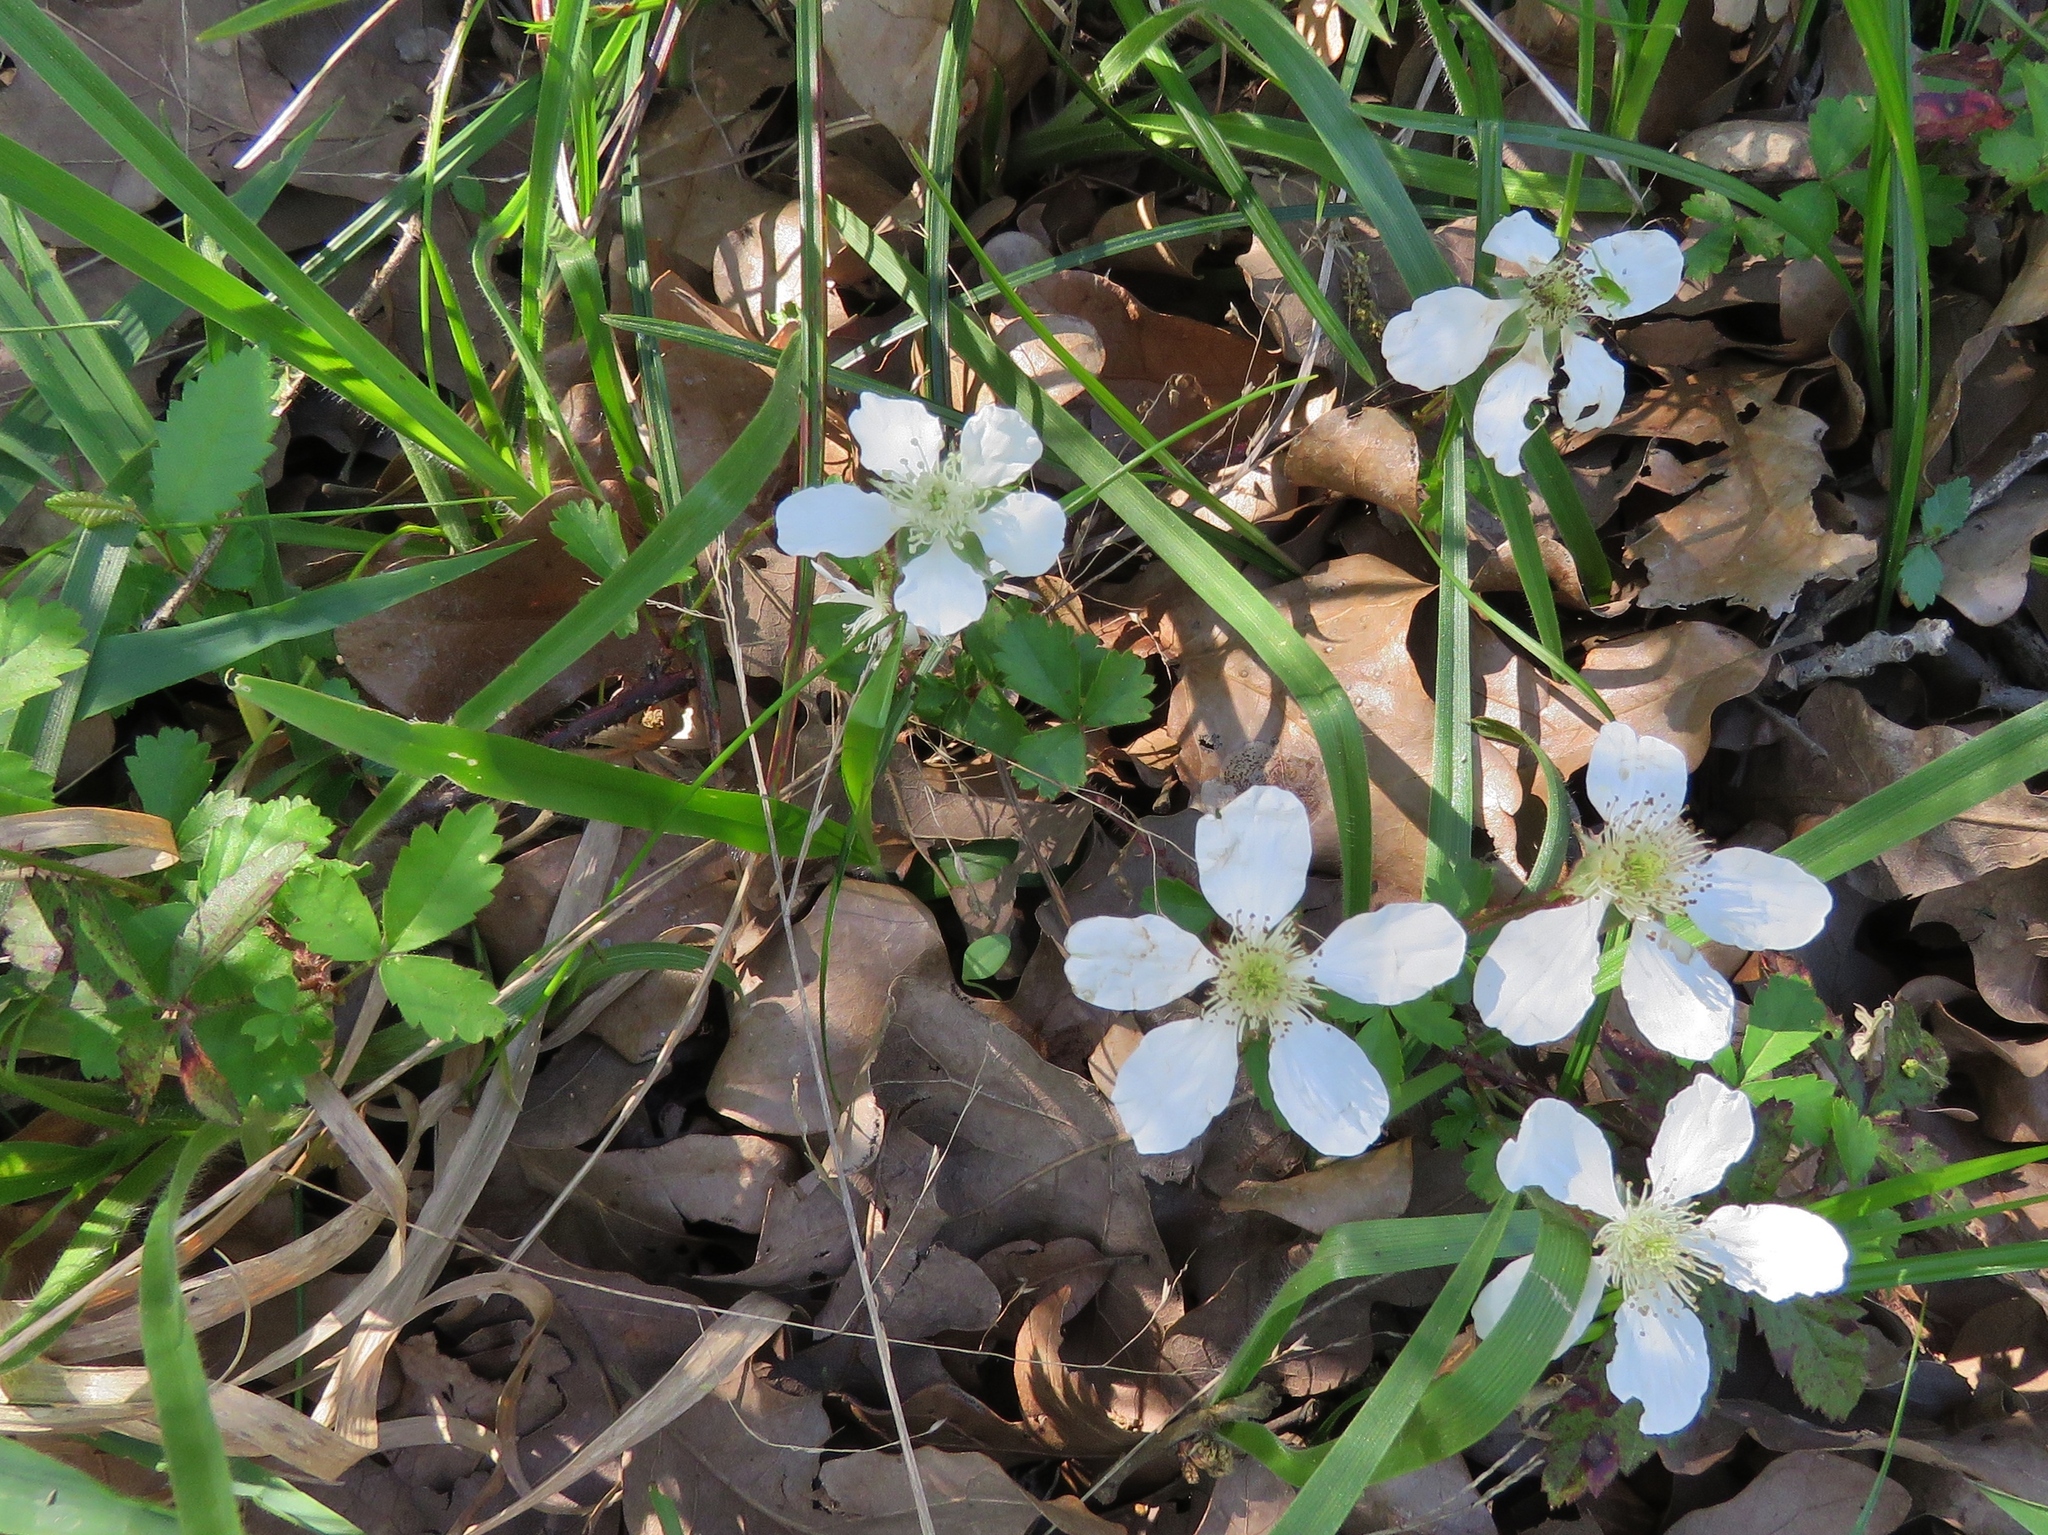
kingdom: Plantae
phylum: Tracheophyta
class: Magnoliopsida
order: Rosales
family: Rosaceae
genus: Rubus
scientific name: Rubus trivialis
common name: Southern dewberry
